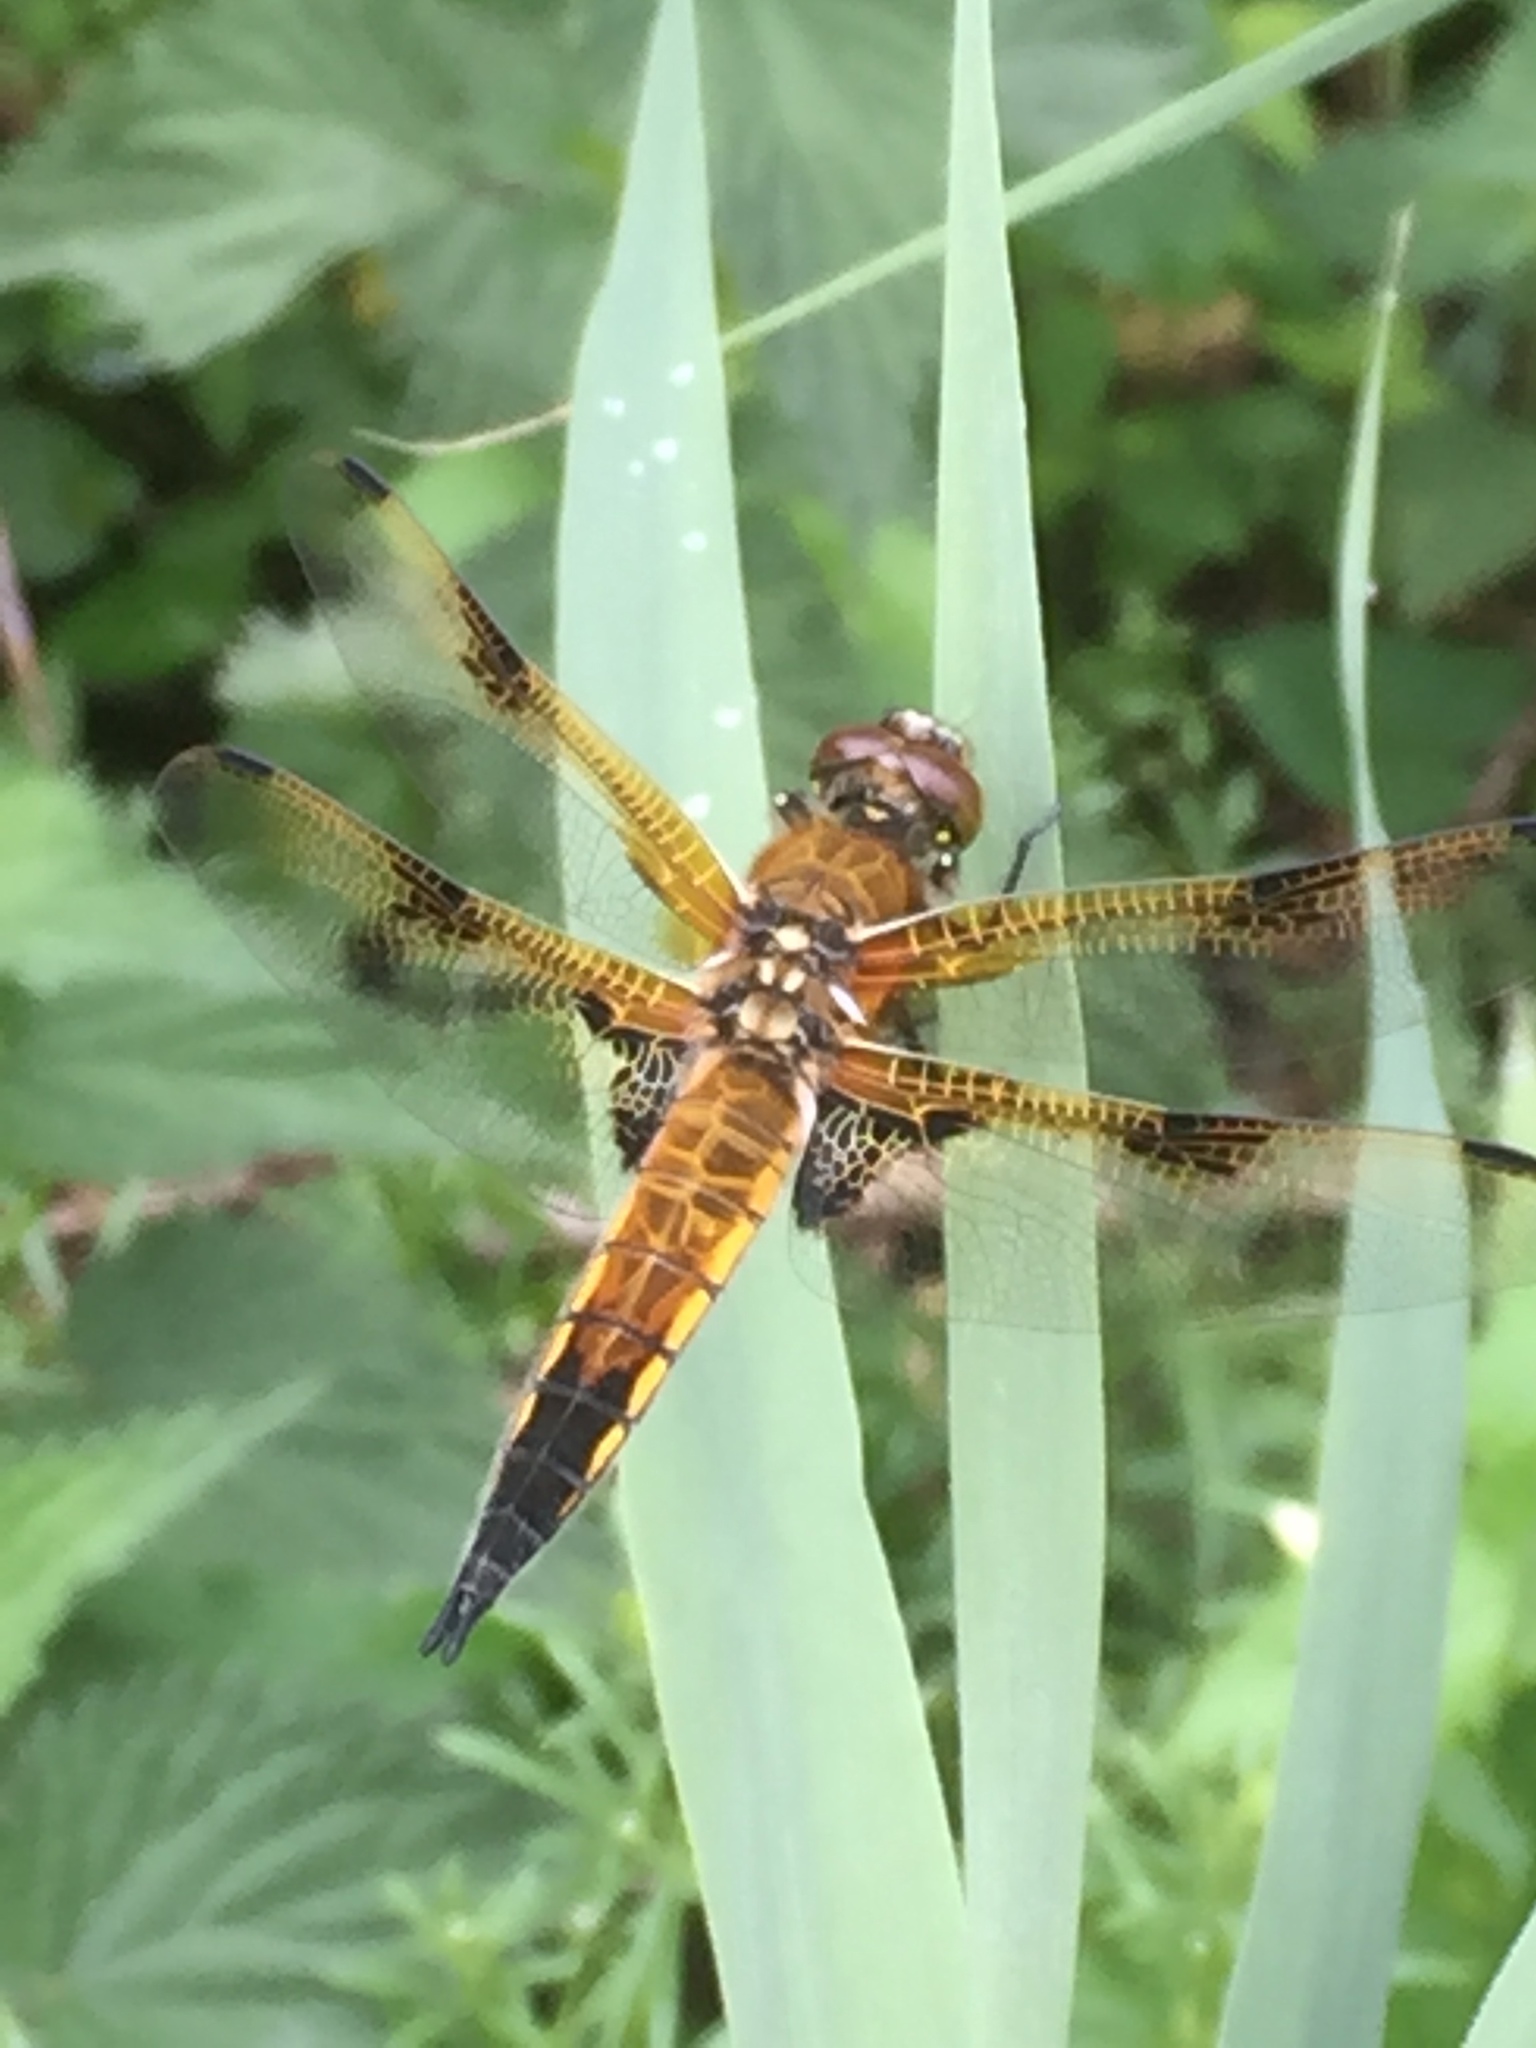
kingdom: Animalia
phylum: Arthropoda
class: Insecta
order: Odonata
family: Libellulidae
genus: Libellula
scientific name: Libellula quadrimaculata
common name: Four-spotted chaser
